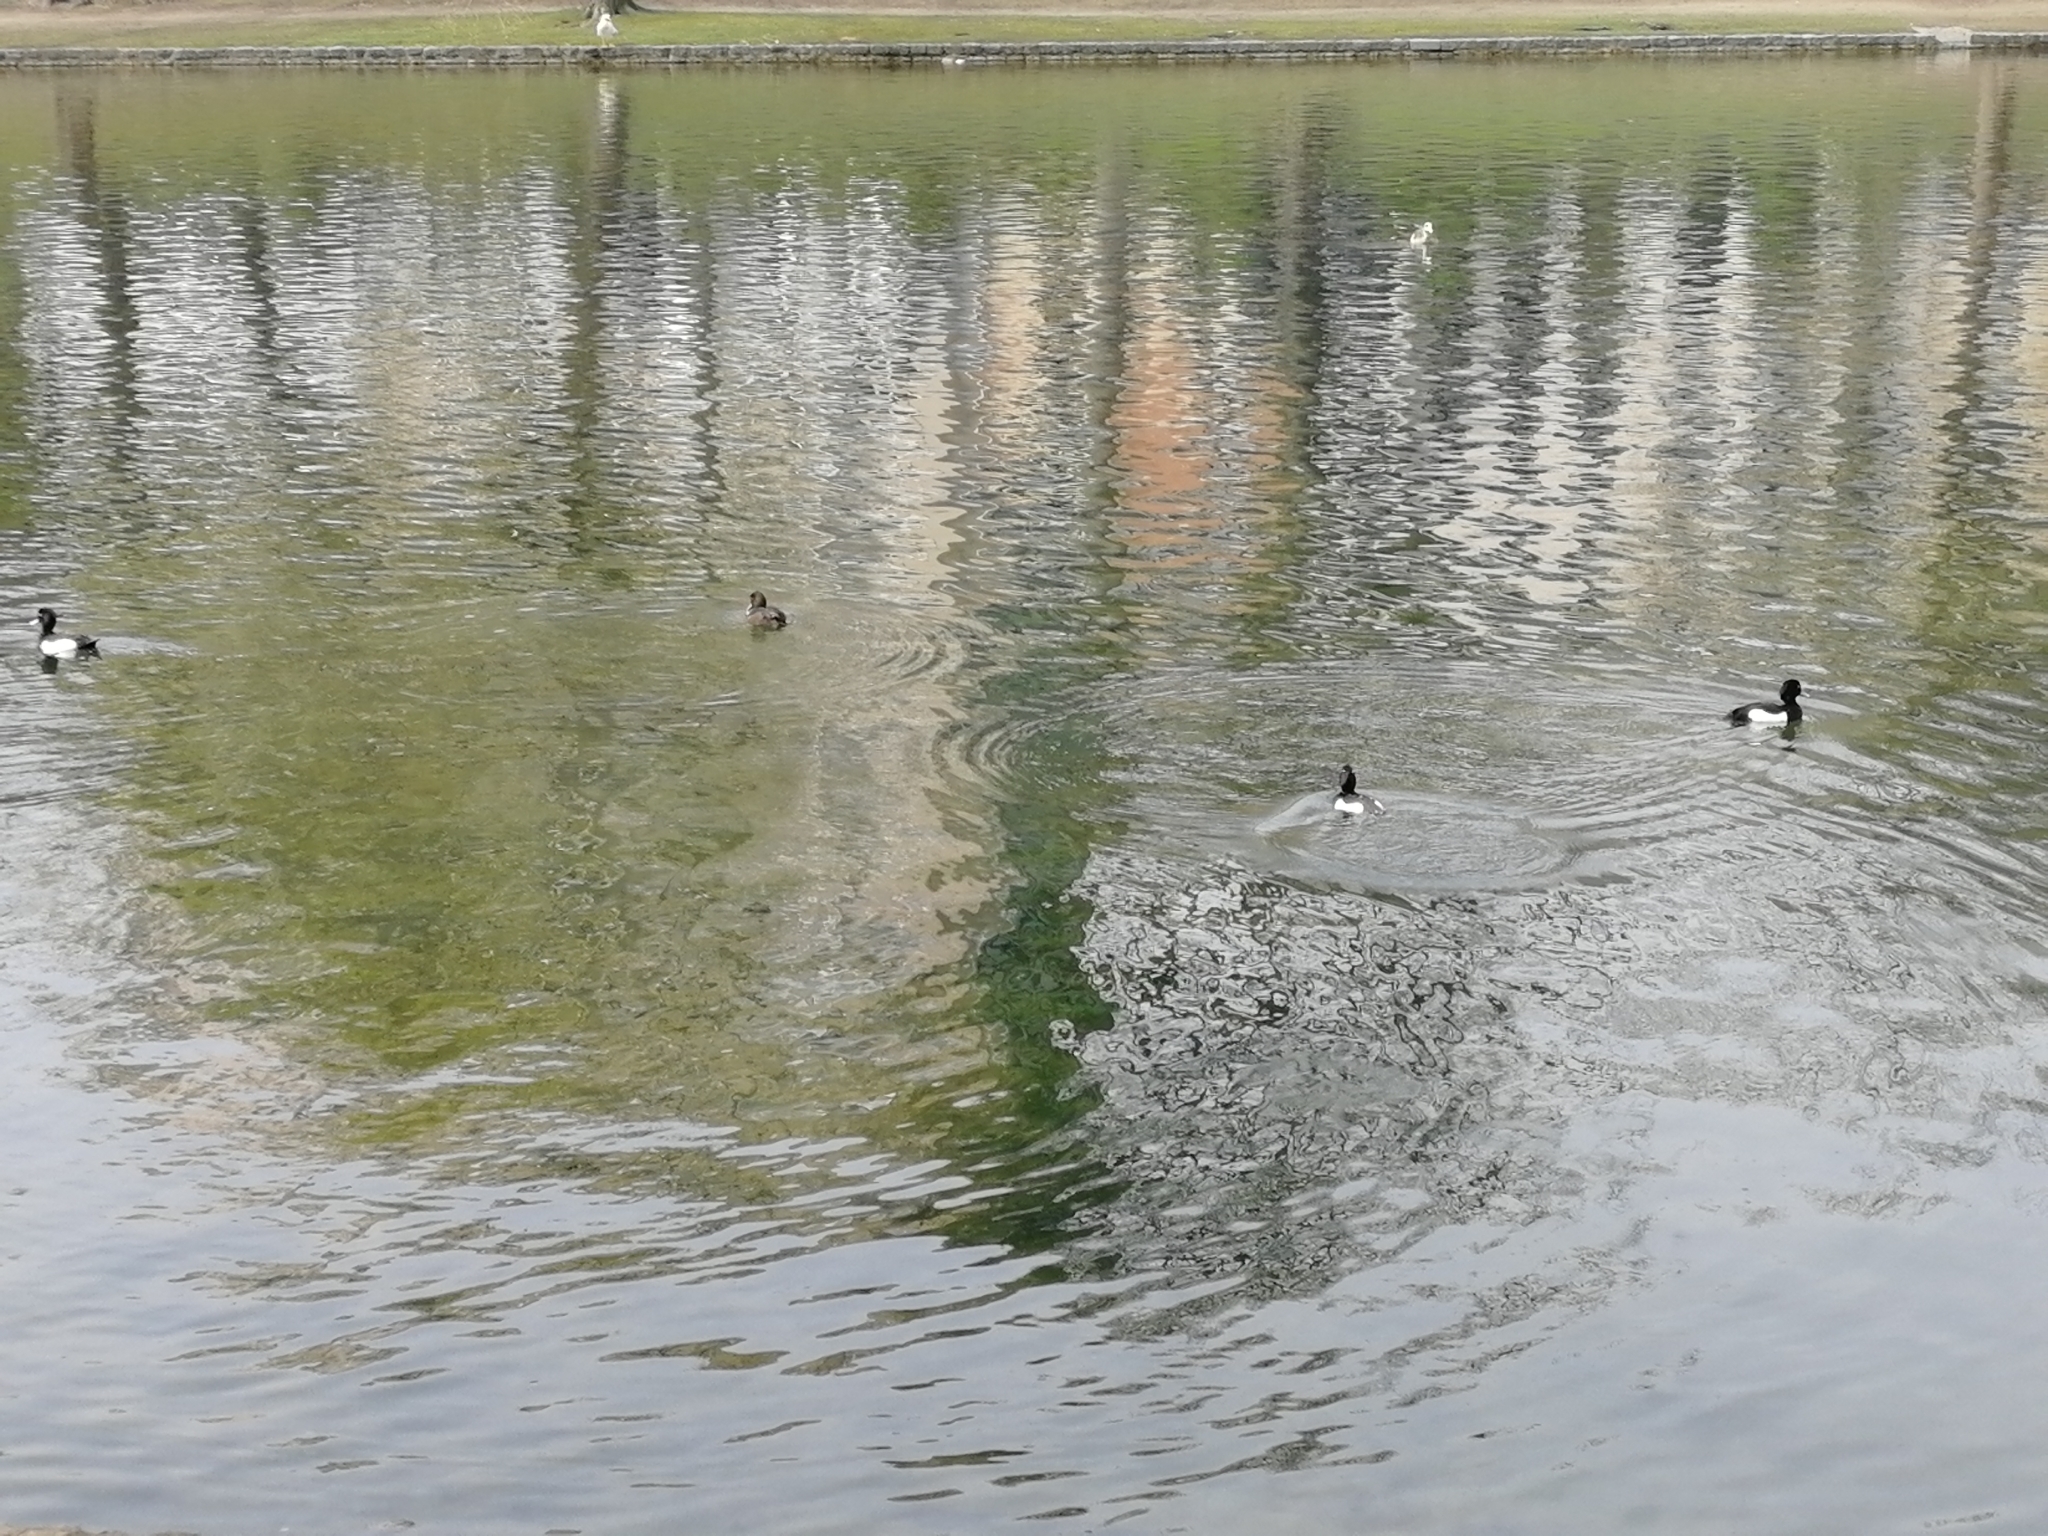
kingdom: Animalia
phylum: Chordata
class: Aves
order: Anseriformes
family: Anatidae
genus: Aythya
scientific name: Aythya fuligula
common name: Tufted duck
